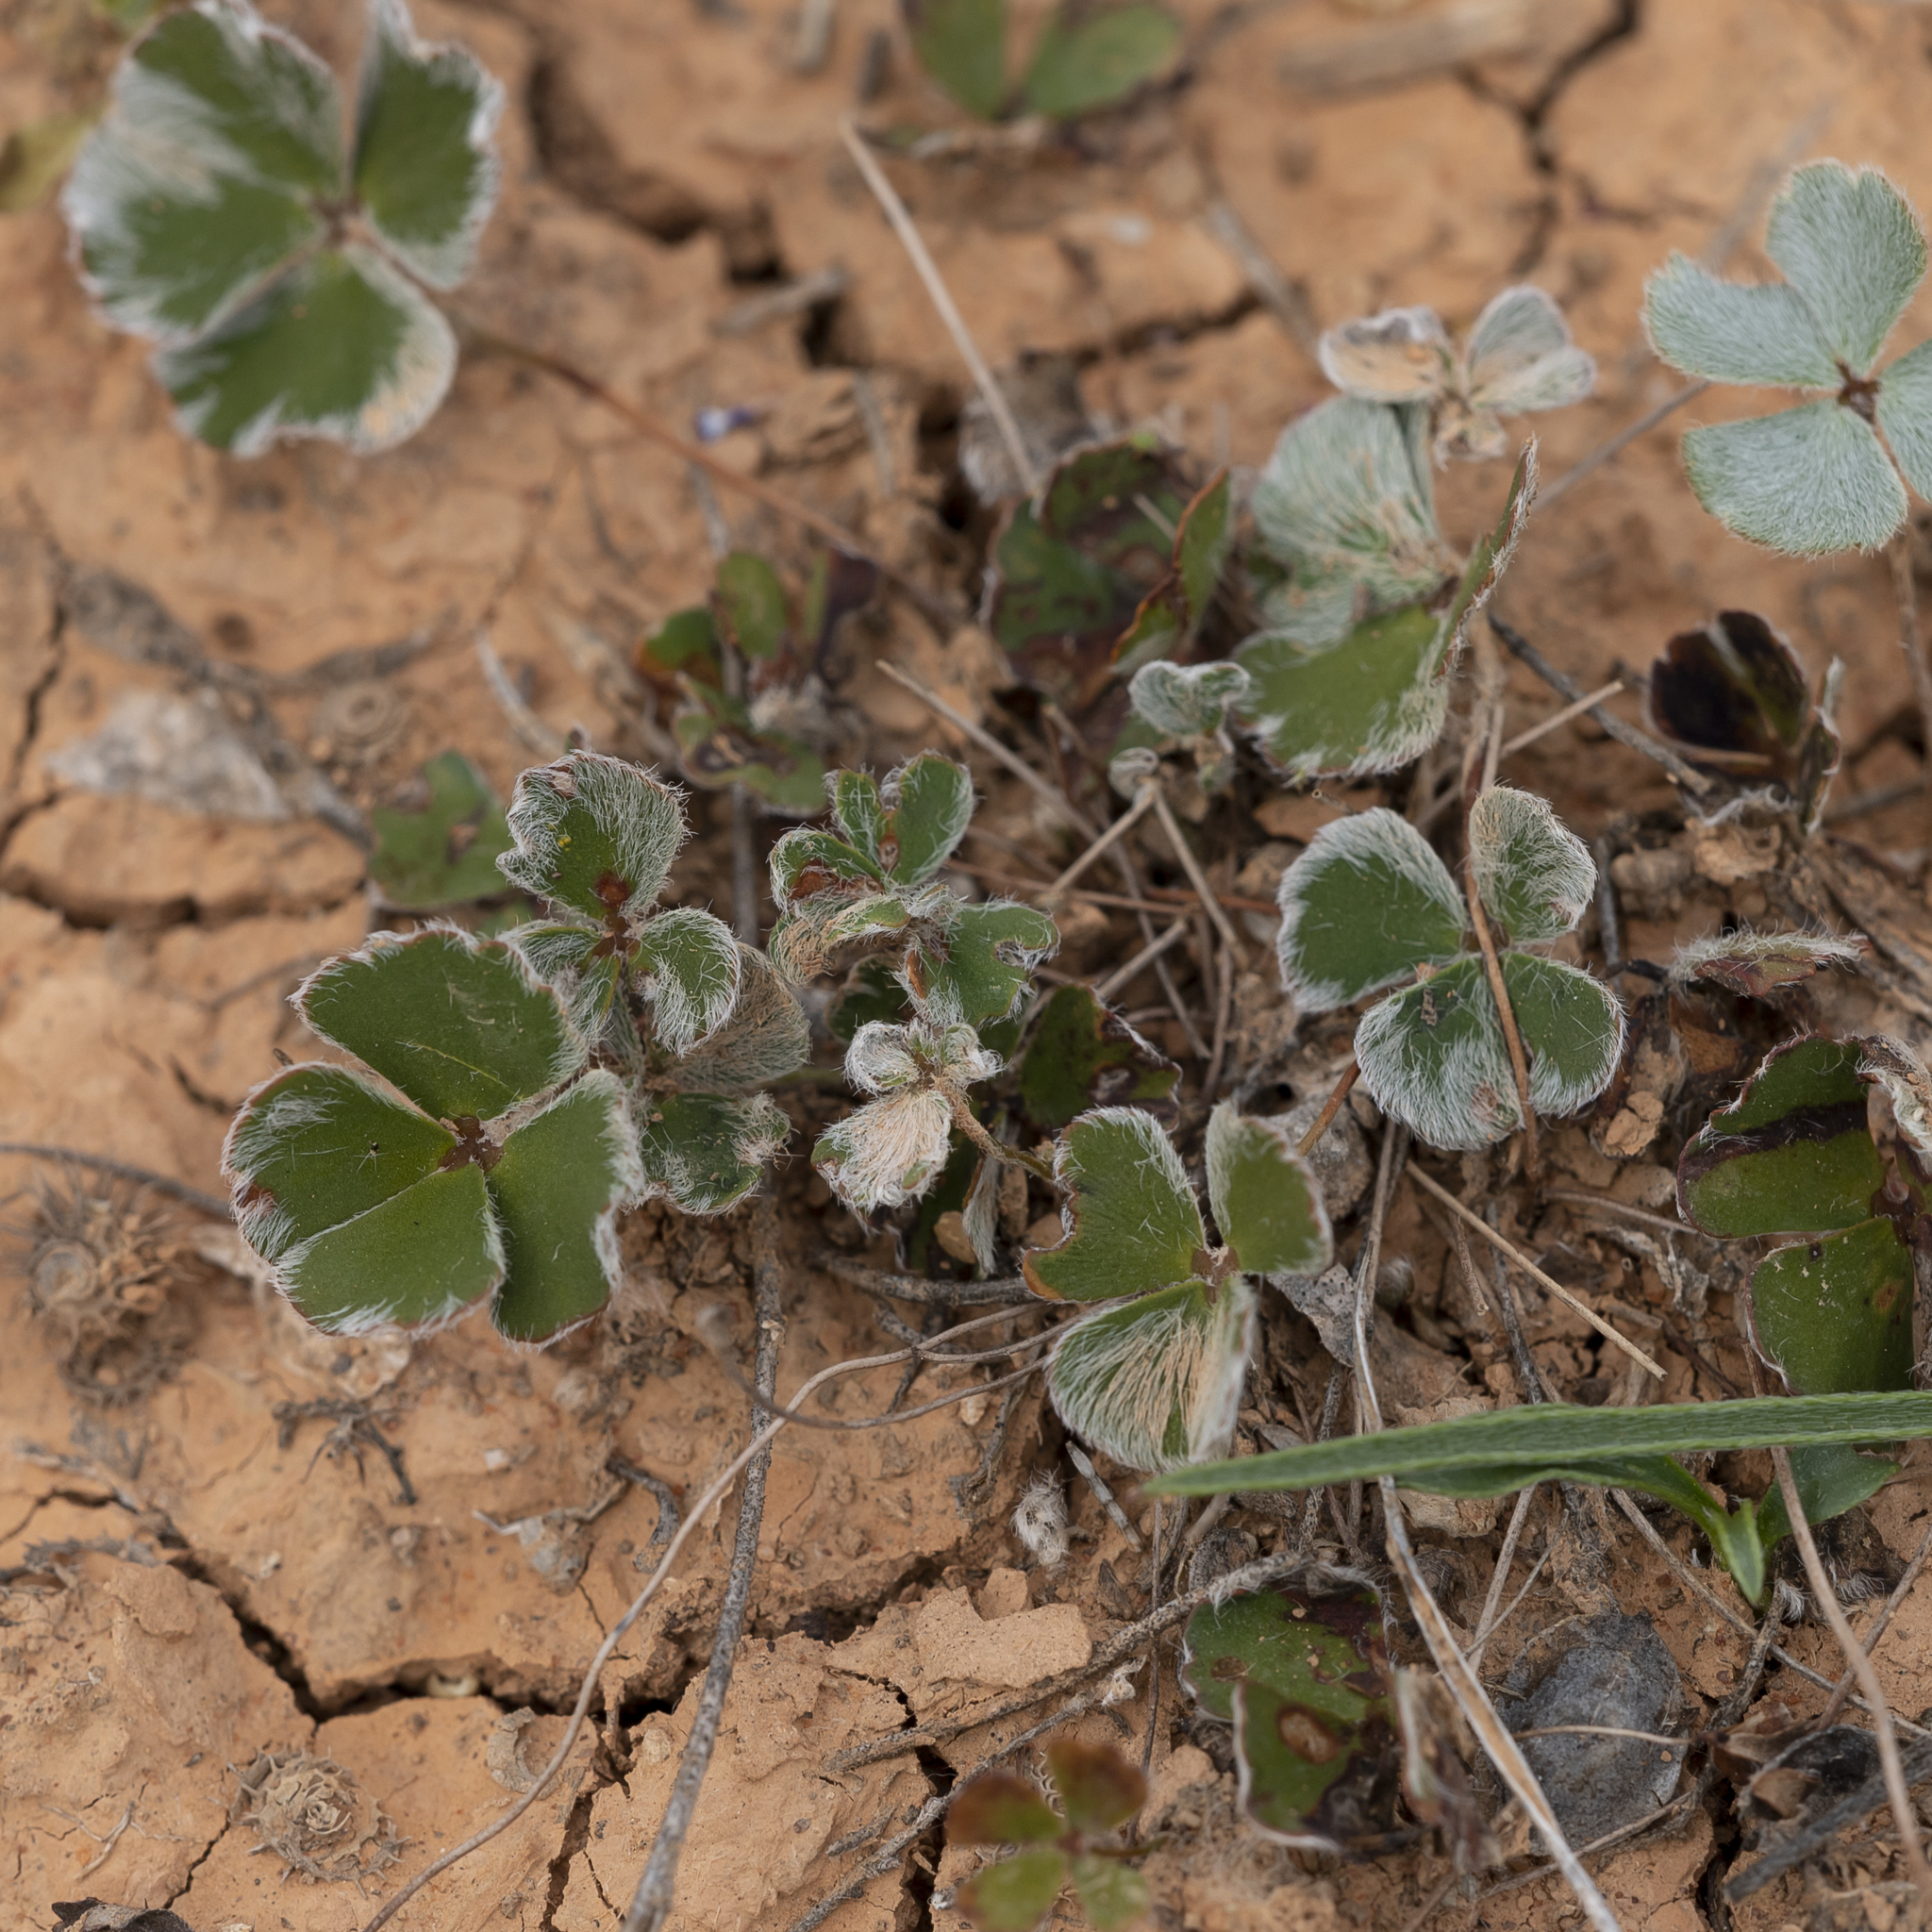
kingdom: Plantae
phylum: Tracheophyta
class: Polypodiopsida
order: Salviniales
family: Marsileaceae
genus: Marsilea
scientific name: Marsilea drummondii
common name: Nardoo
